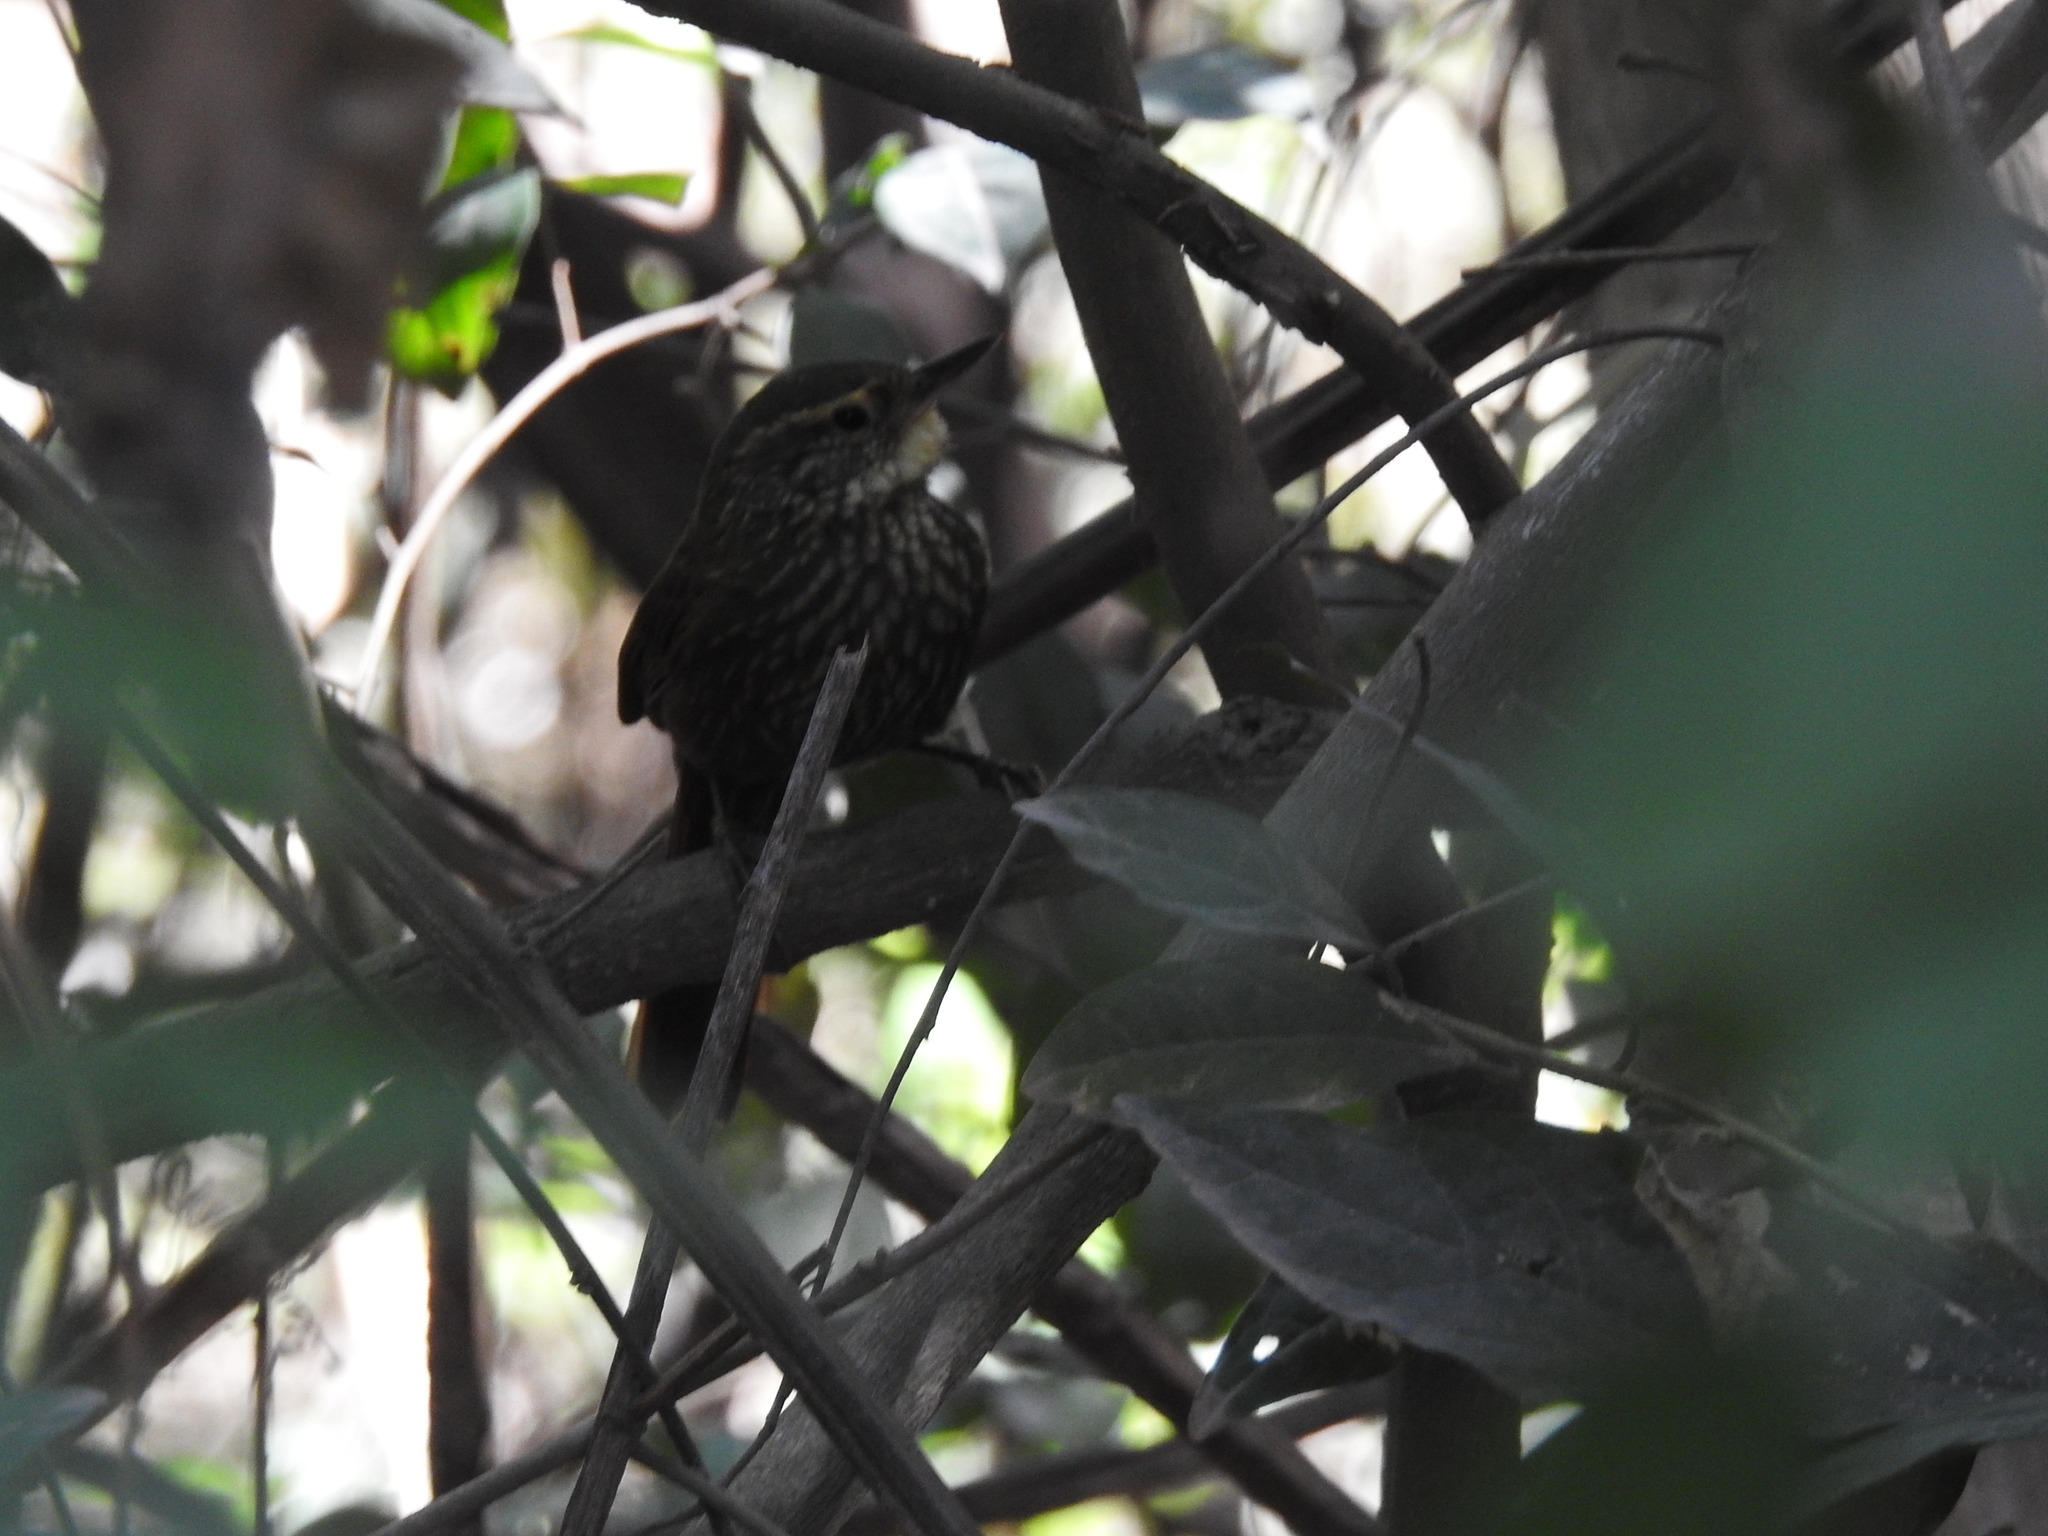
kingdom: Animalia
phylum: Chordata
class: Aves
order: Passeriformes
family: Furnariidae
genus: Syndactyla
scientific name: Syndactyla rufosuperciliata
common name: Buff-browed foliage-gleaner
